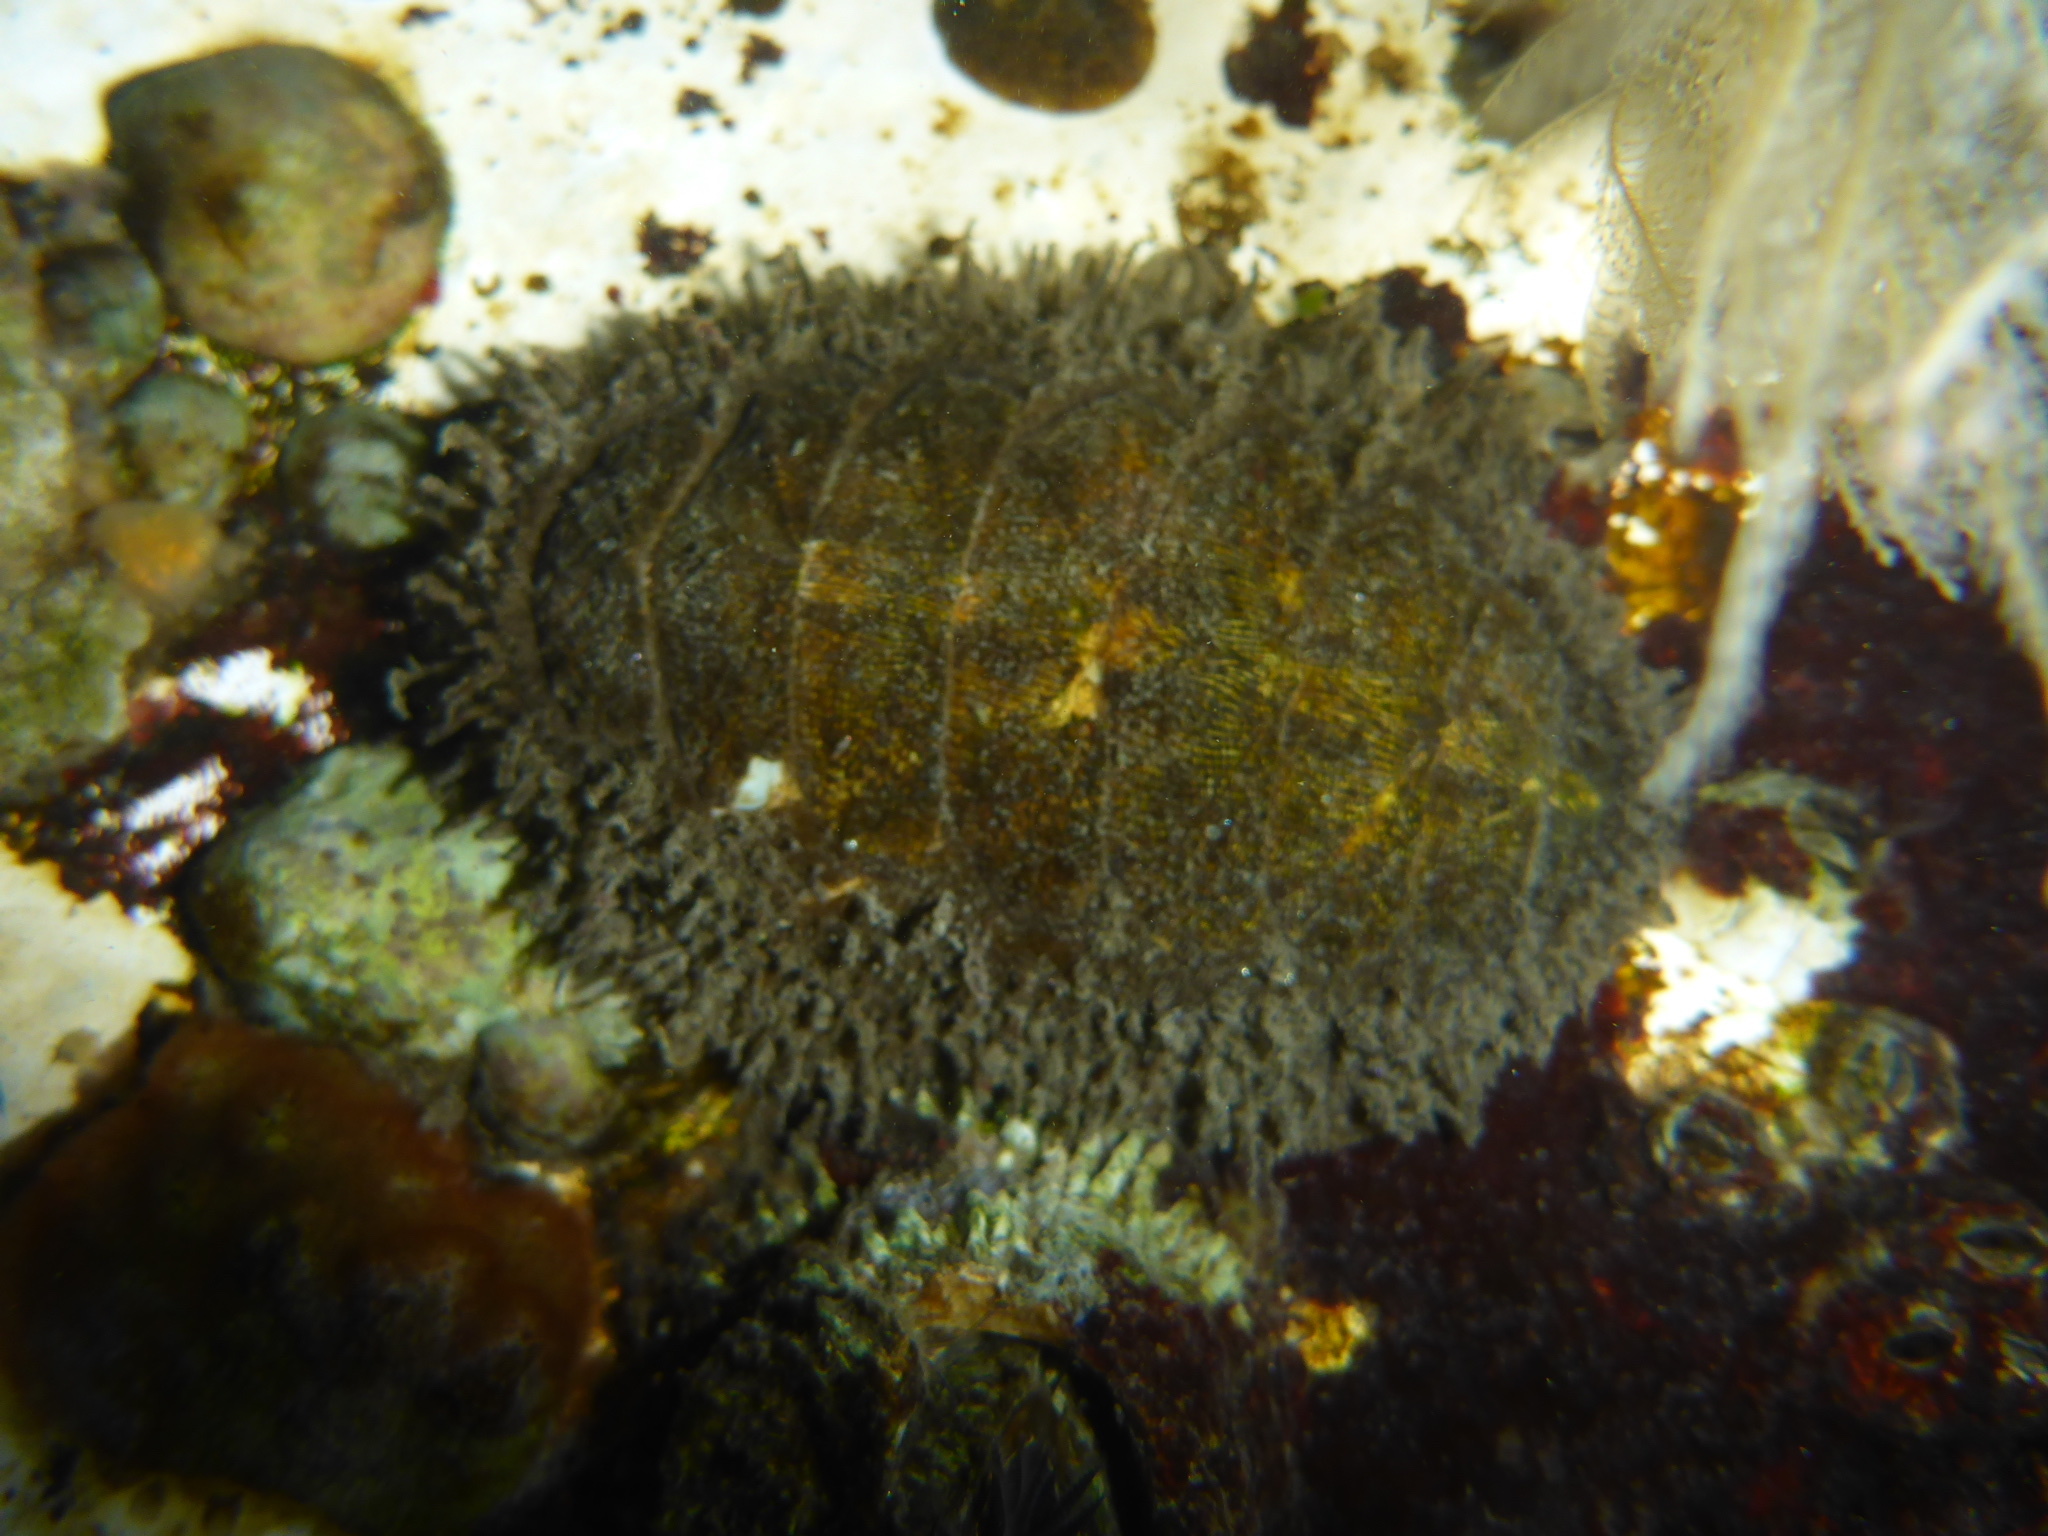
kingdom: Animalia
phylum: Mollusca
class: Polyplacophora
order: Chitonida
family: Mopaliidae
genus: Mopalia
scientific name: Mopalia muscosa
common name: Mossy chiton
